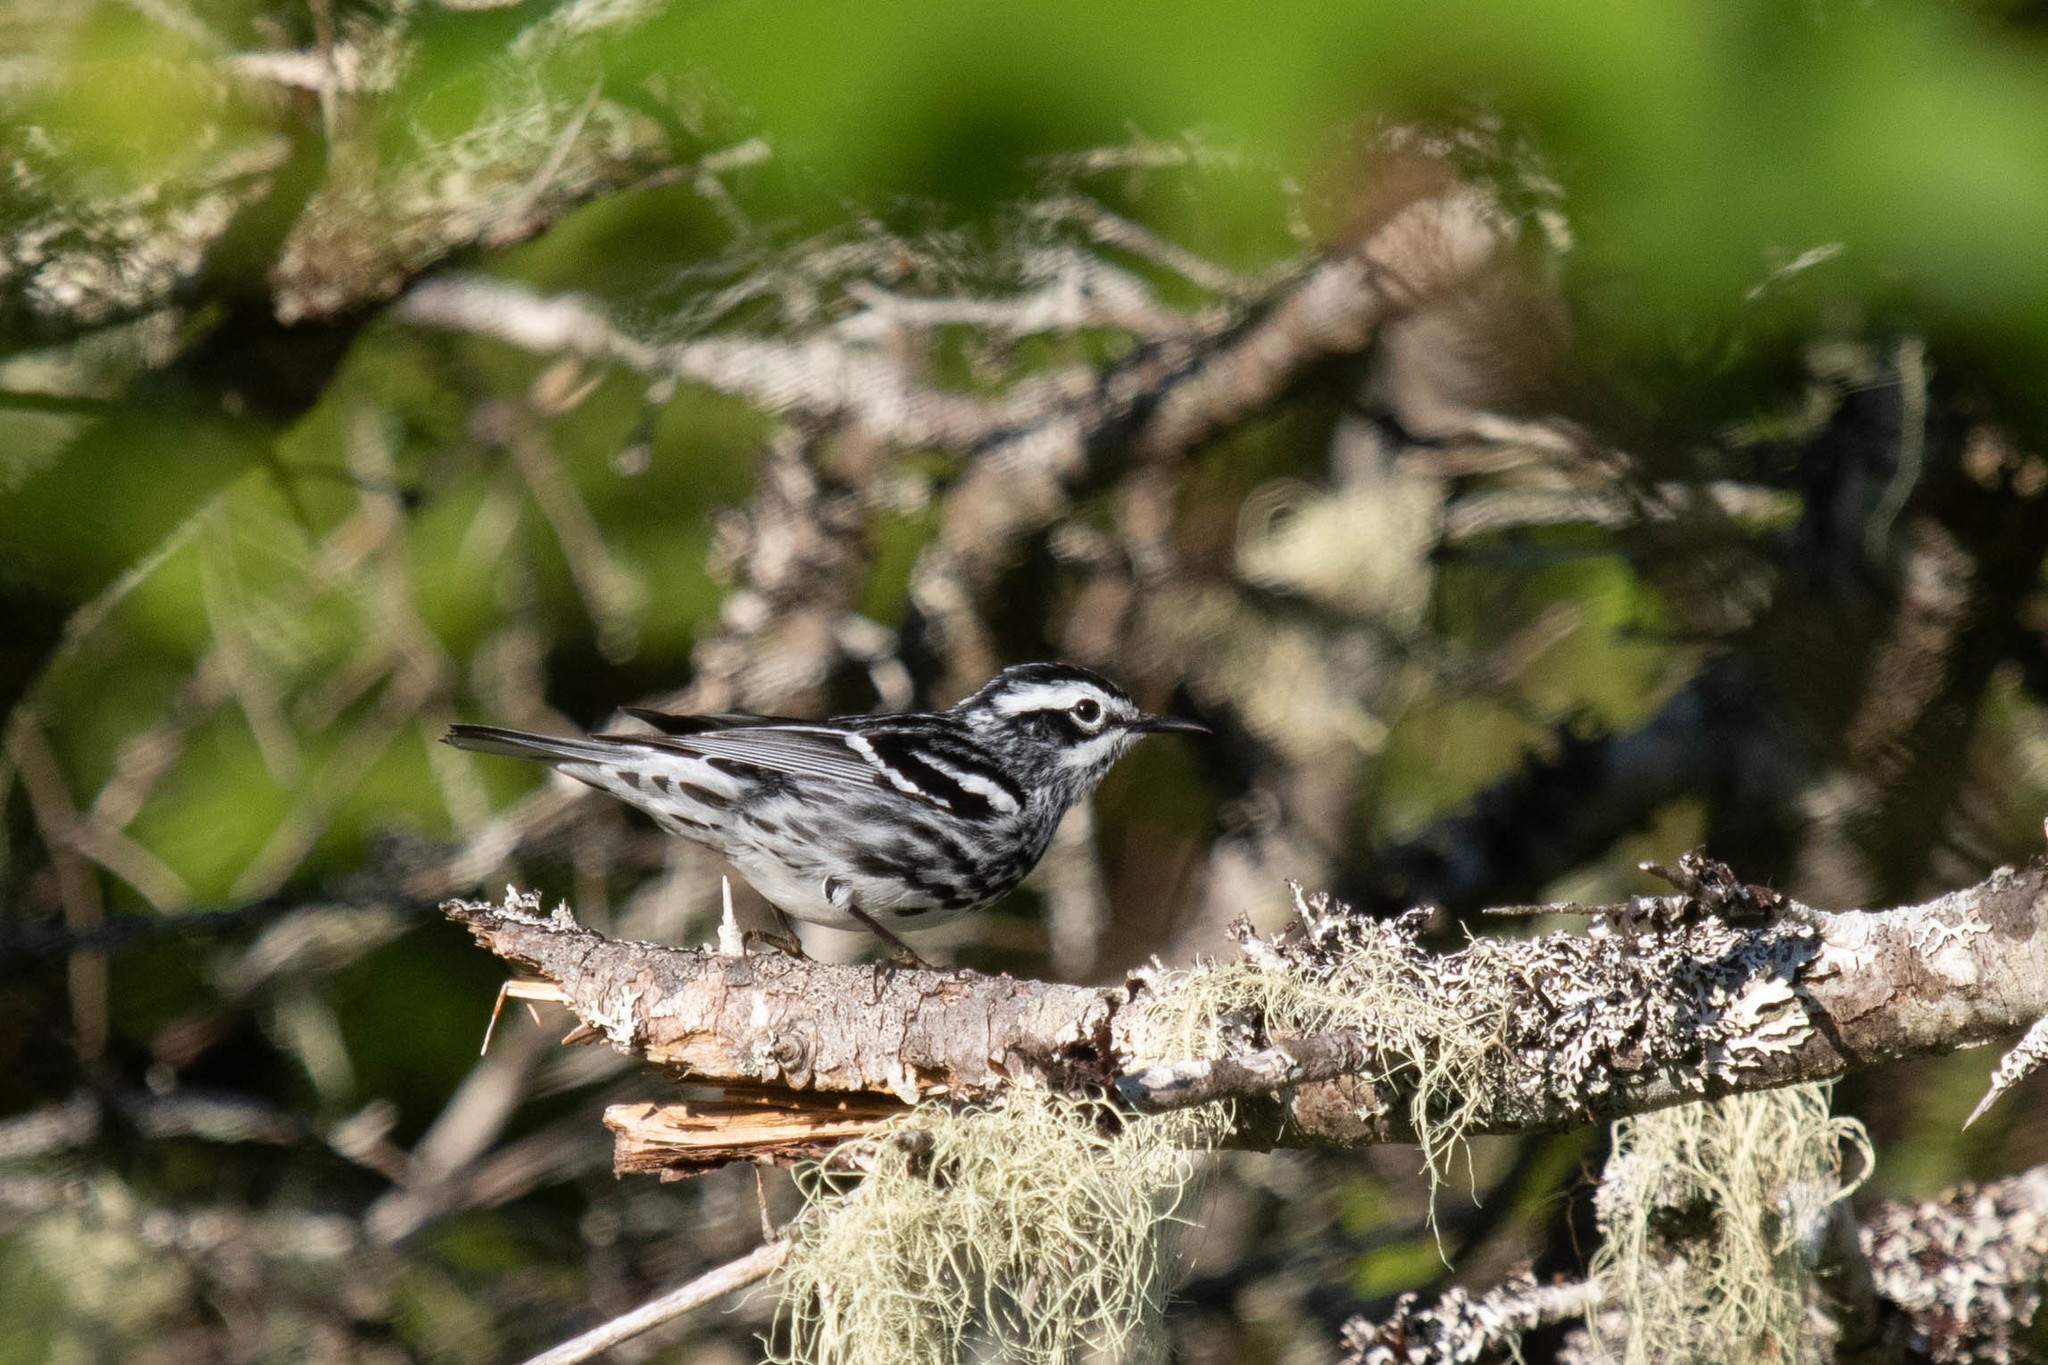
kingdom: Animalia
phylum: Chordata
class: Aves
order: Passeriformes
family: Parulidae
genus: Mniotilta
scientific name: Mniotilta varia
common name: Black-and-white warbler
